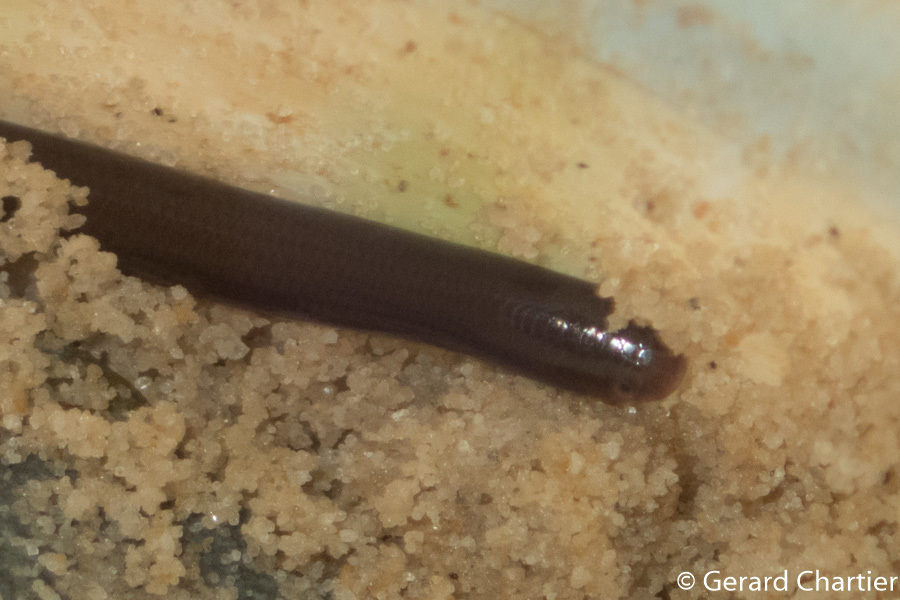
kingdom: Animalia
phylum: Chordata
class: Squamata
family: Typhlopidae
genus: Indotyphlops
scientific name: Indotyphlops braminus
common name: Brahminy blindsnake
